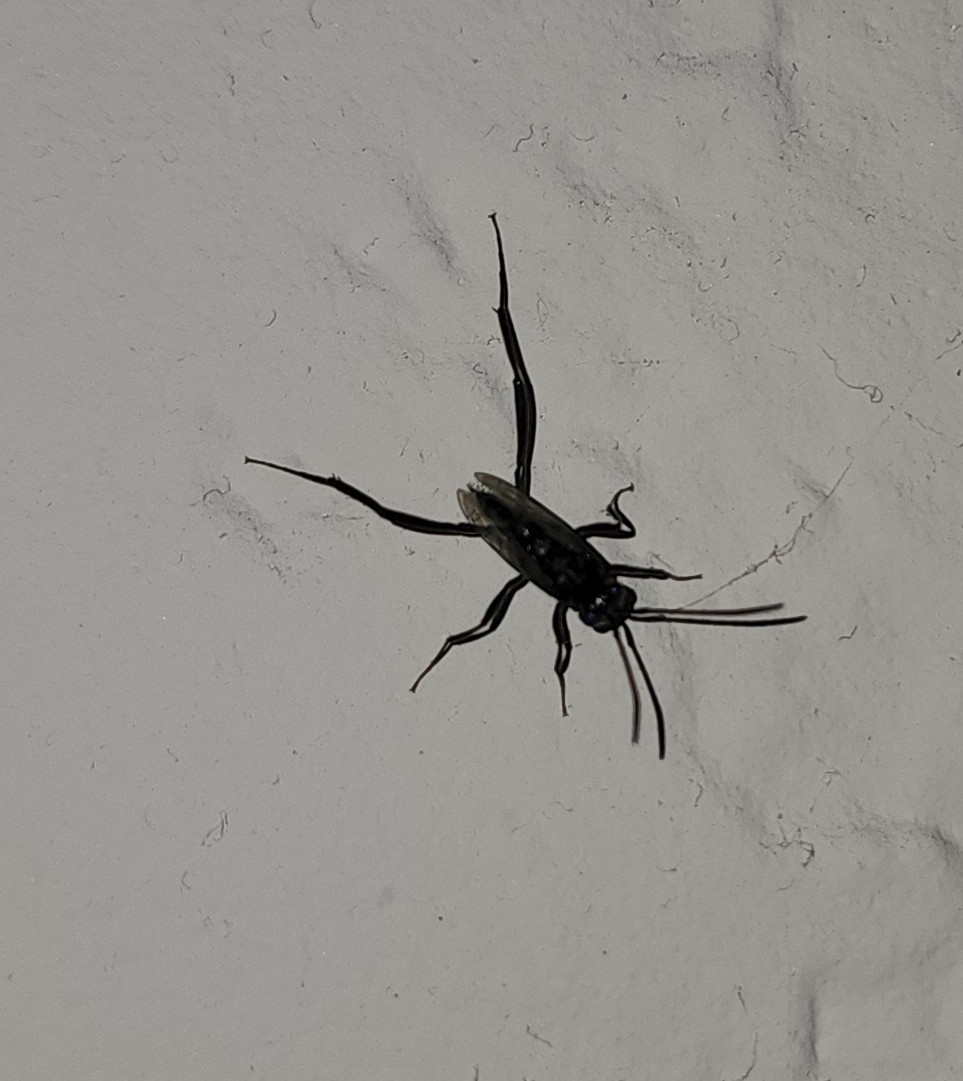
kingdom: Animalia
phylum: Arthropoda
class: Insecta
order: Hymenoptera
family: Evaniidae
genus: Evania
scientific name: Evania appendigaster
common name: Ensign wasp
